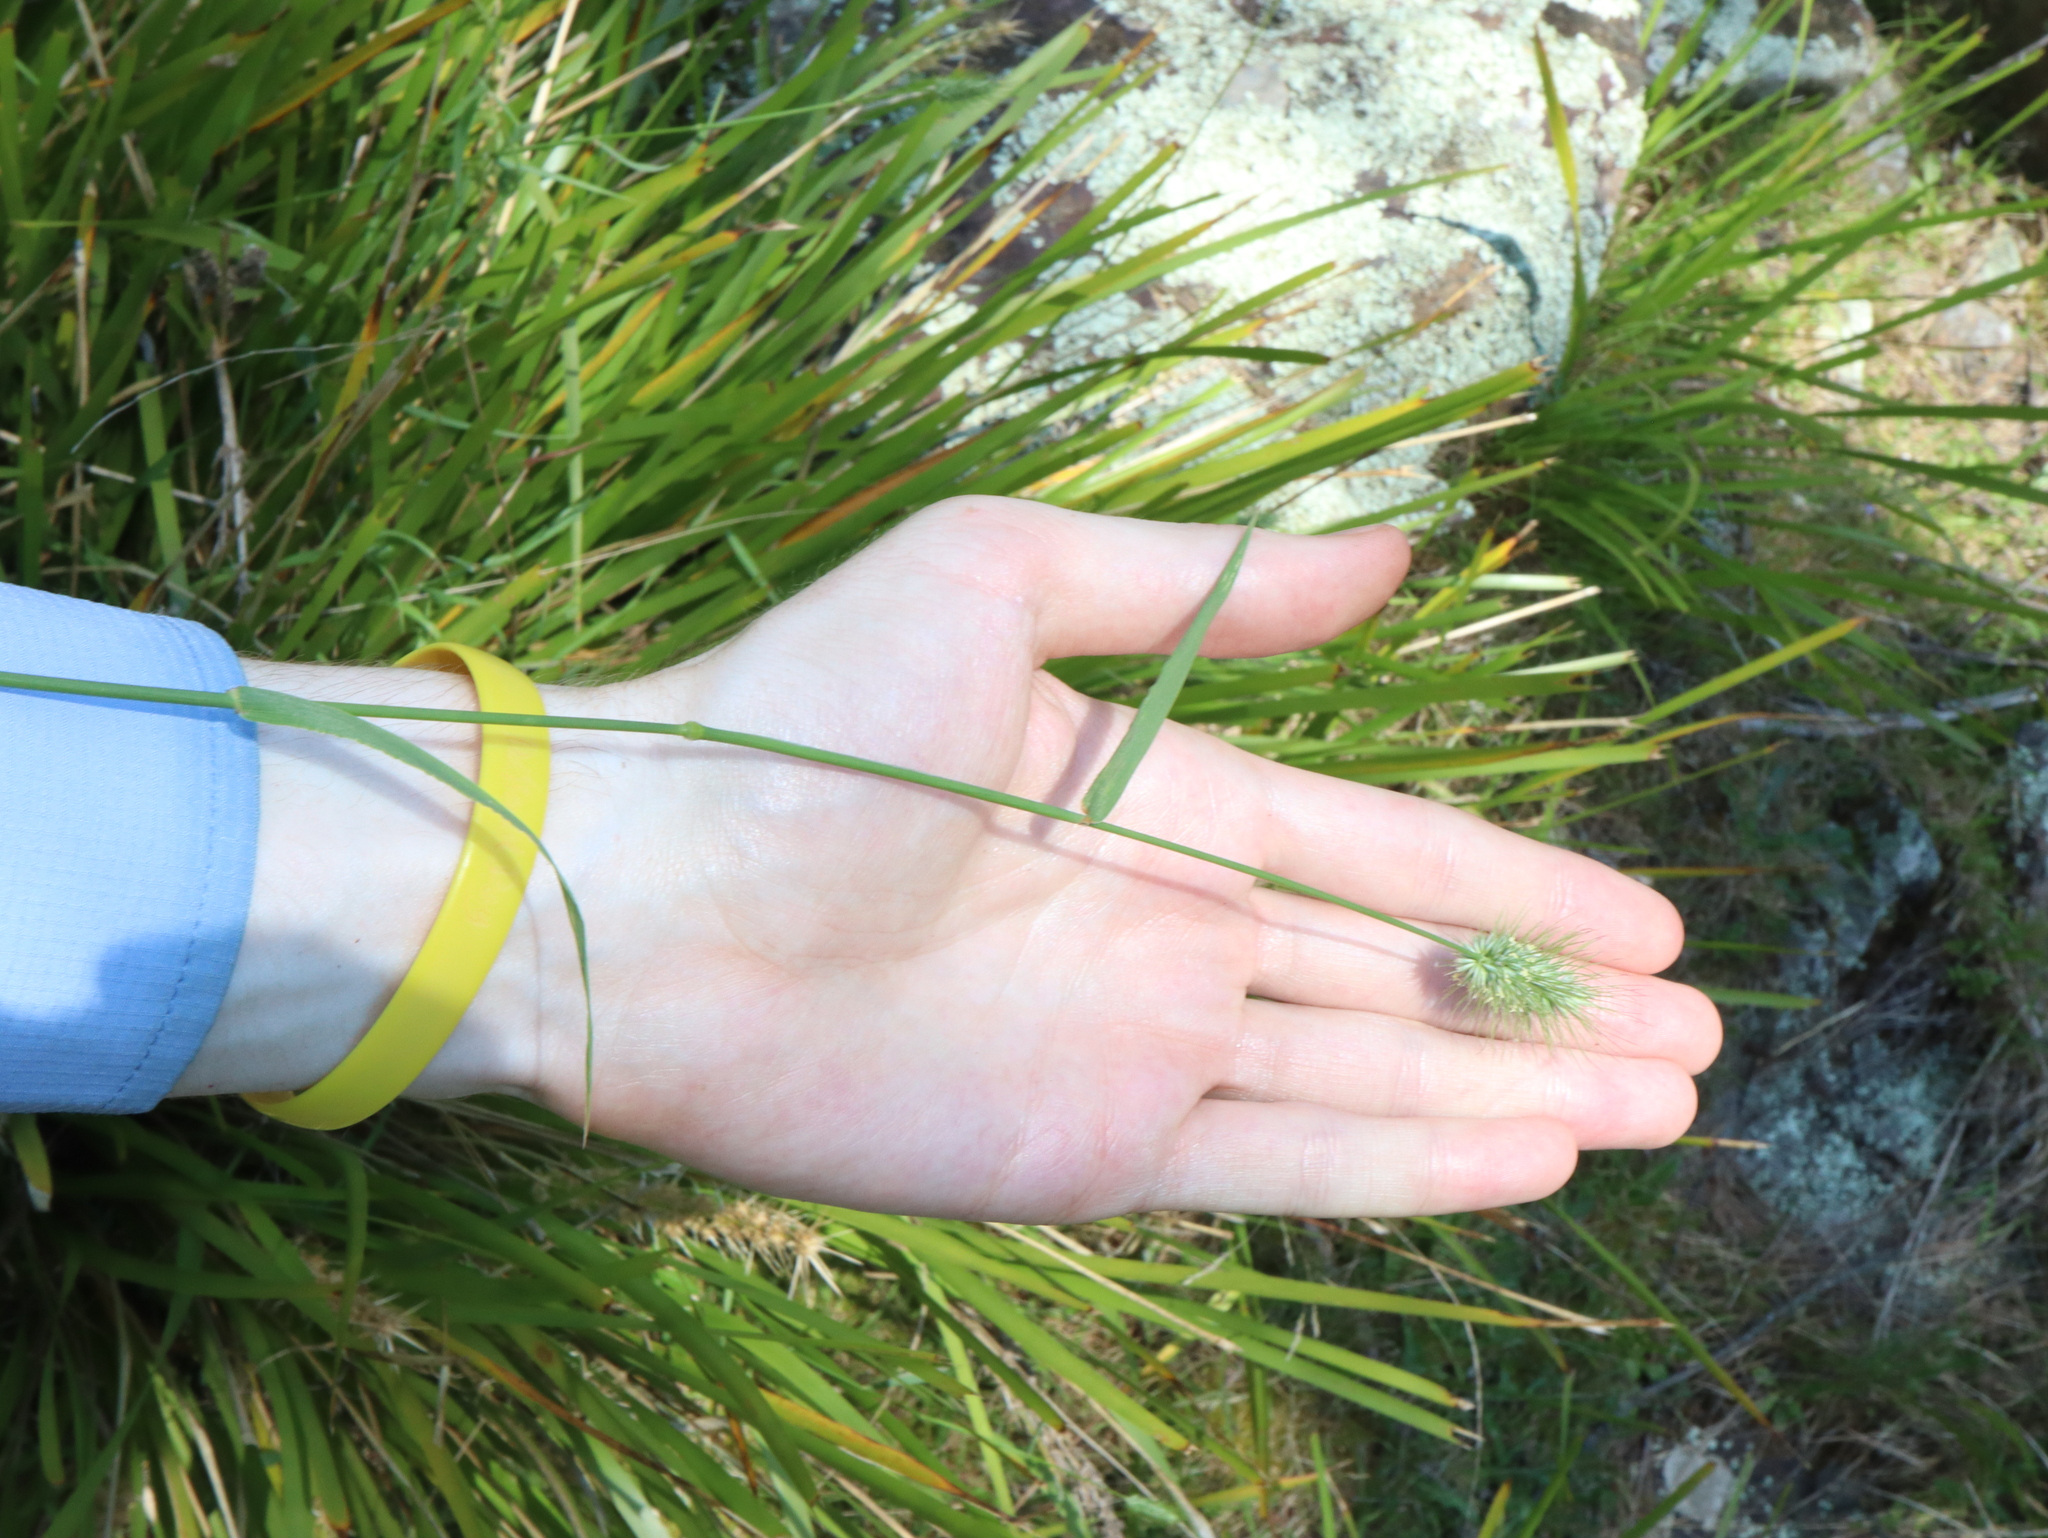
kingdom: Plantae
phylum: Tracheophyta
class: Liliopsida
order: Poales
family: Poaceae
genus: Echinopogon
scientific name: Echinopogon ovatus
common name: Hedgehog-grass
